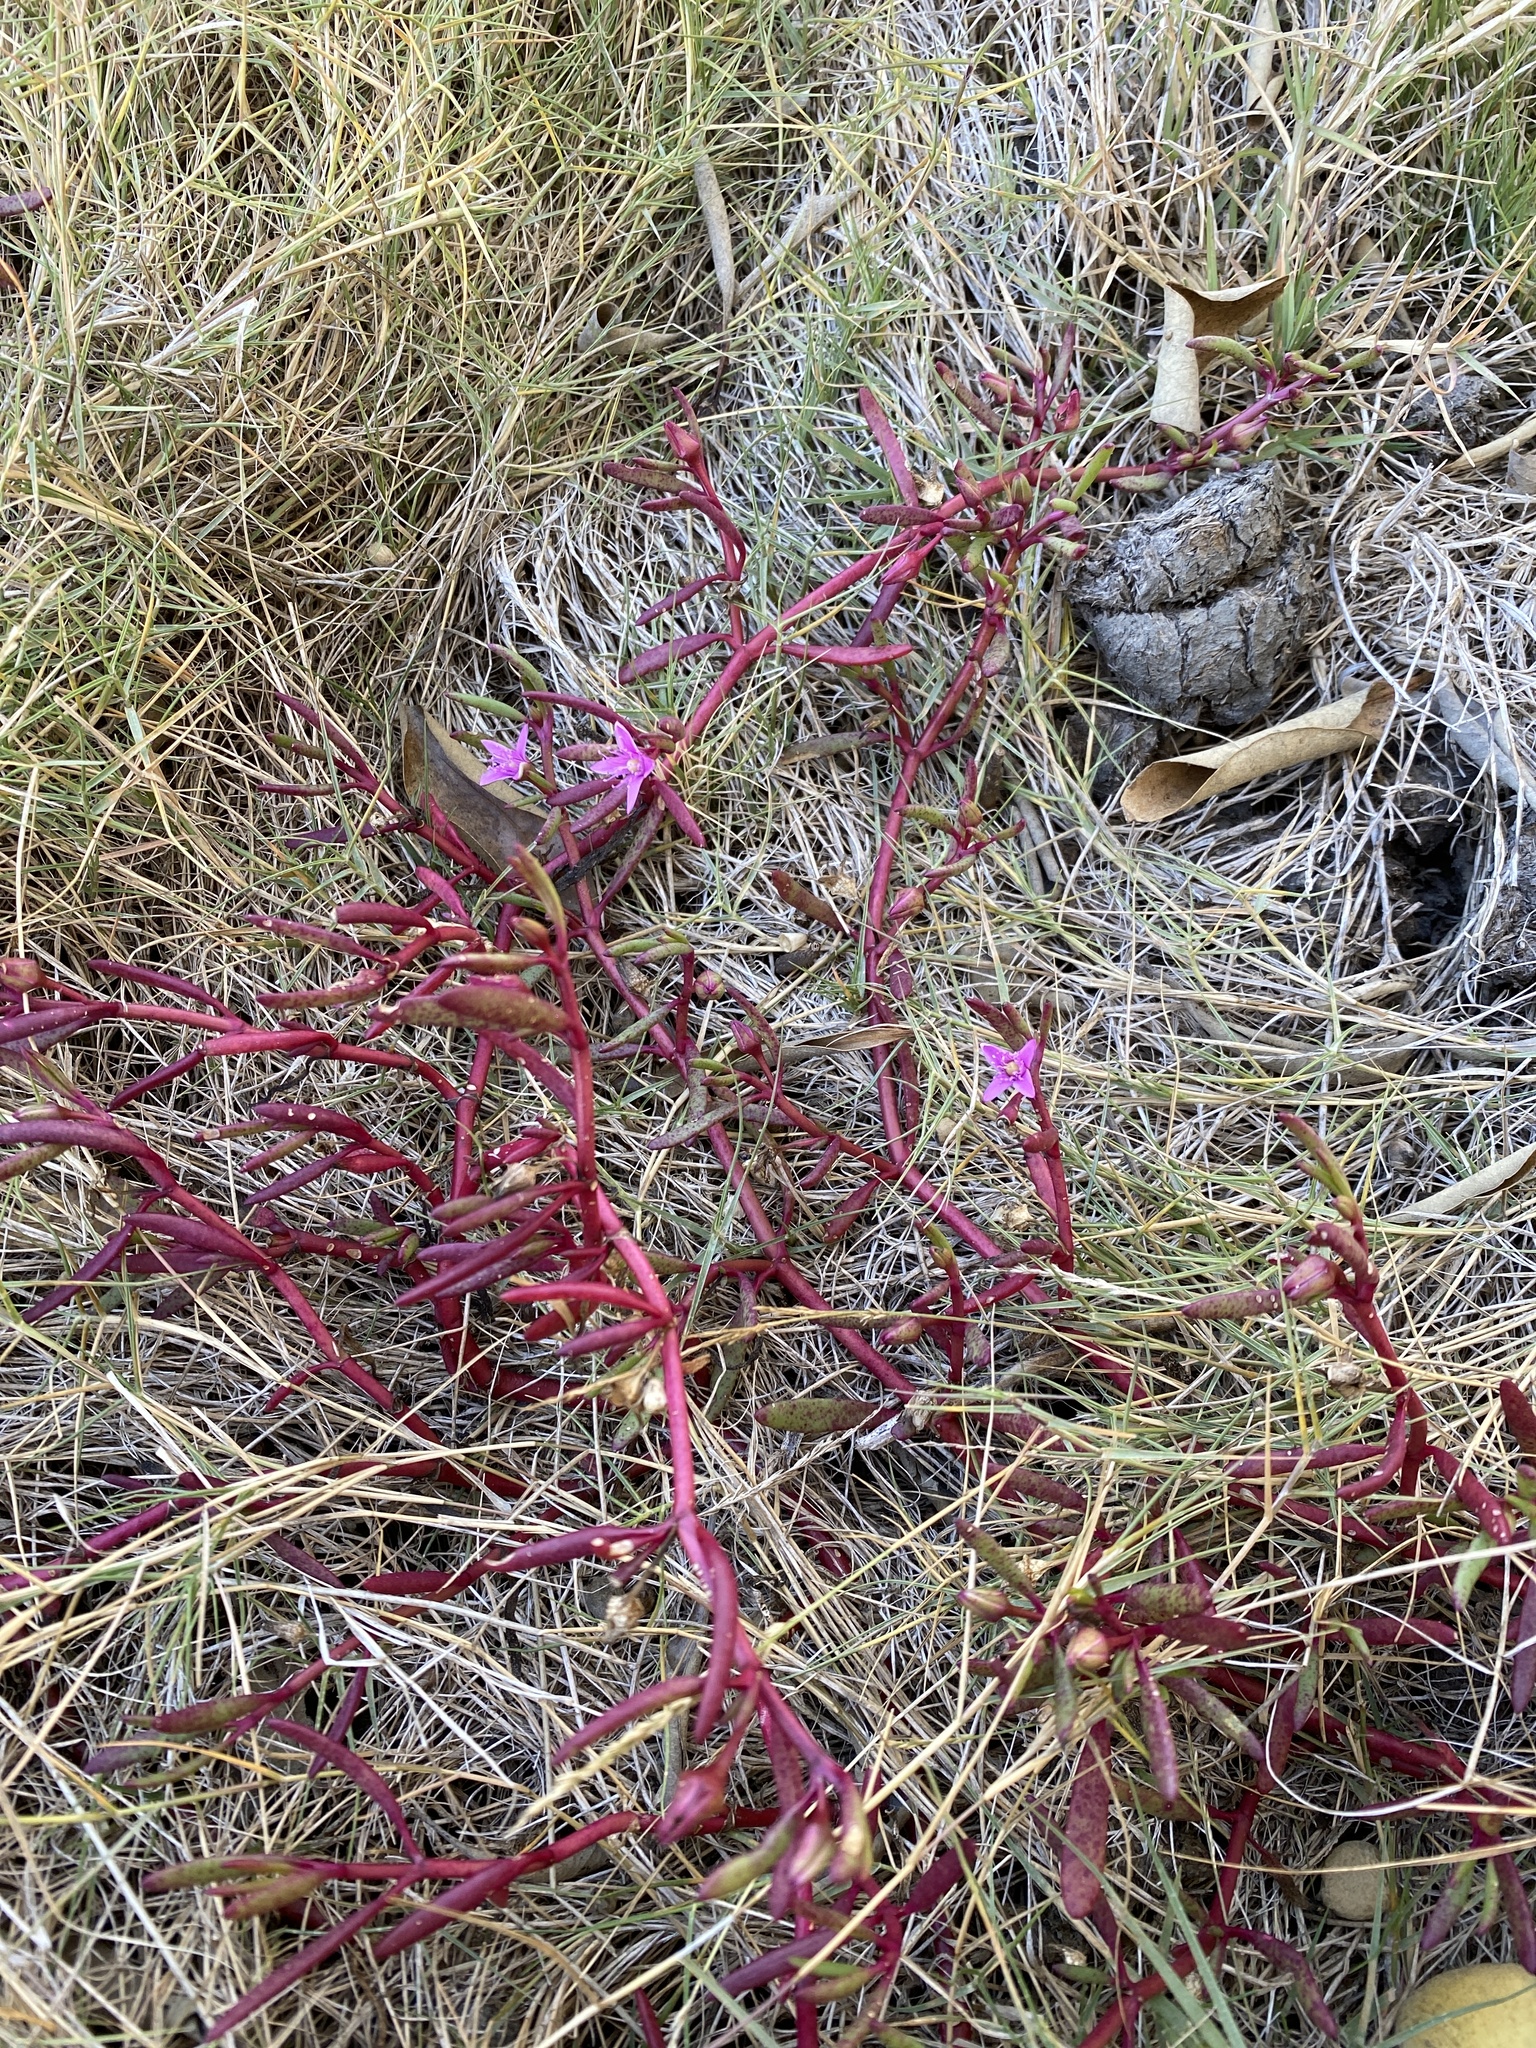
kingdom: Plantae
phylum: Tracheophyta
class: Magnoliopsida
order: Caryophyllales
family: Aizoaceae
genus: Sesuvium
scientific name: Sesuvium portulacastrum
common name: Sea-purslane
